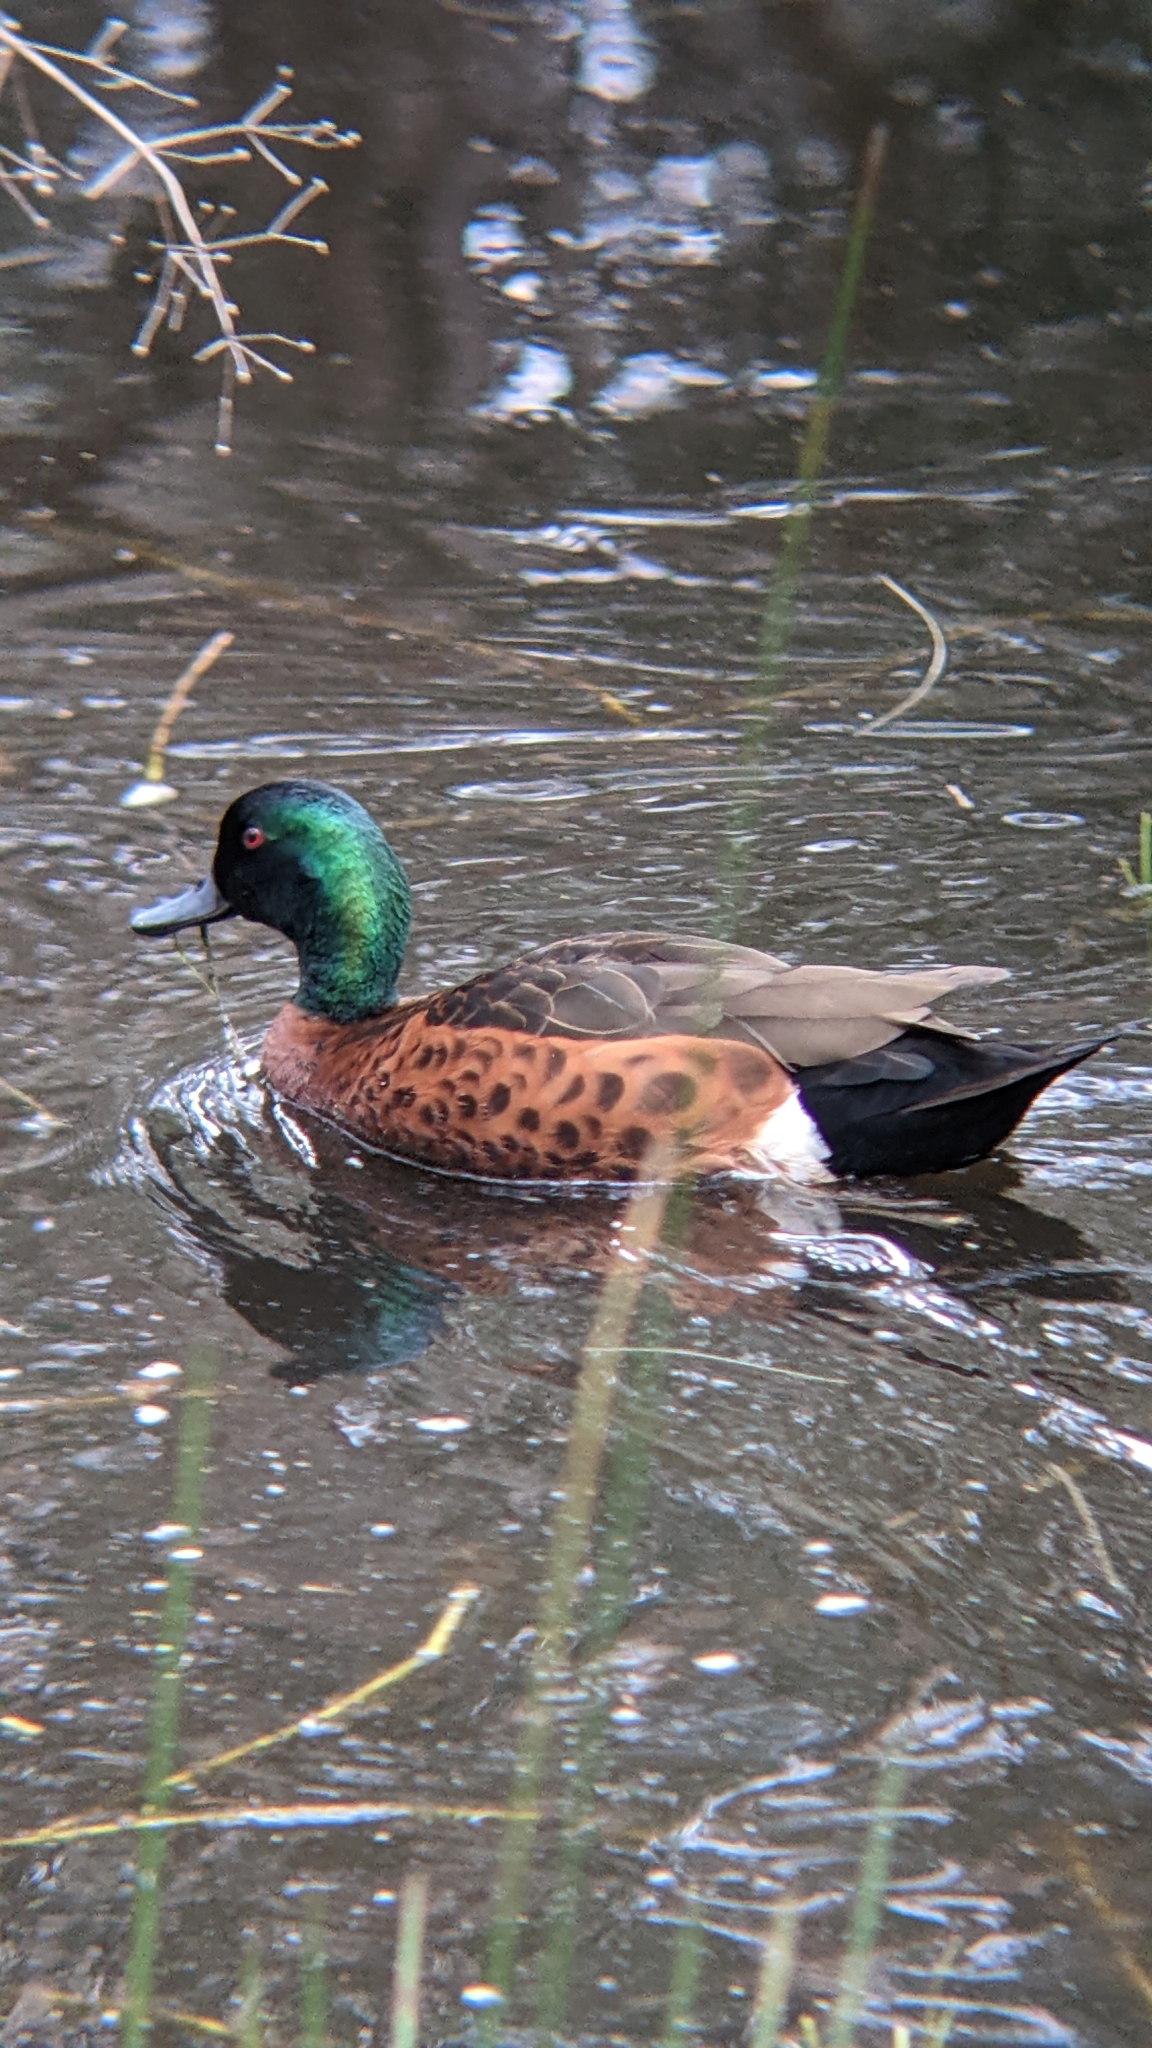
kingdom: Animalia
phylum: Chordata
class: Aves
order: Anseriformes
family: Anatidae
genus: Anas
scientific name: Anas castanea
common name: Chestnut teal
